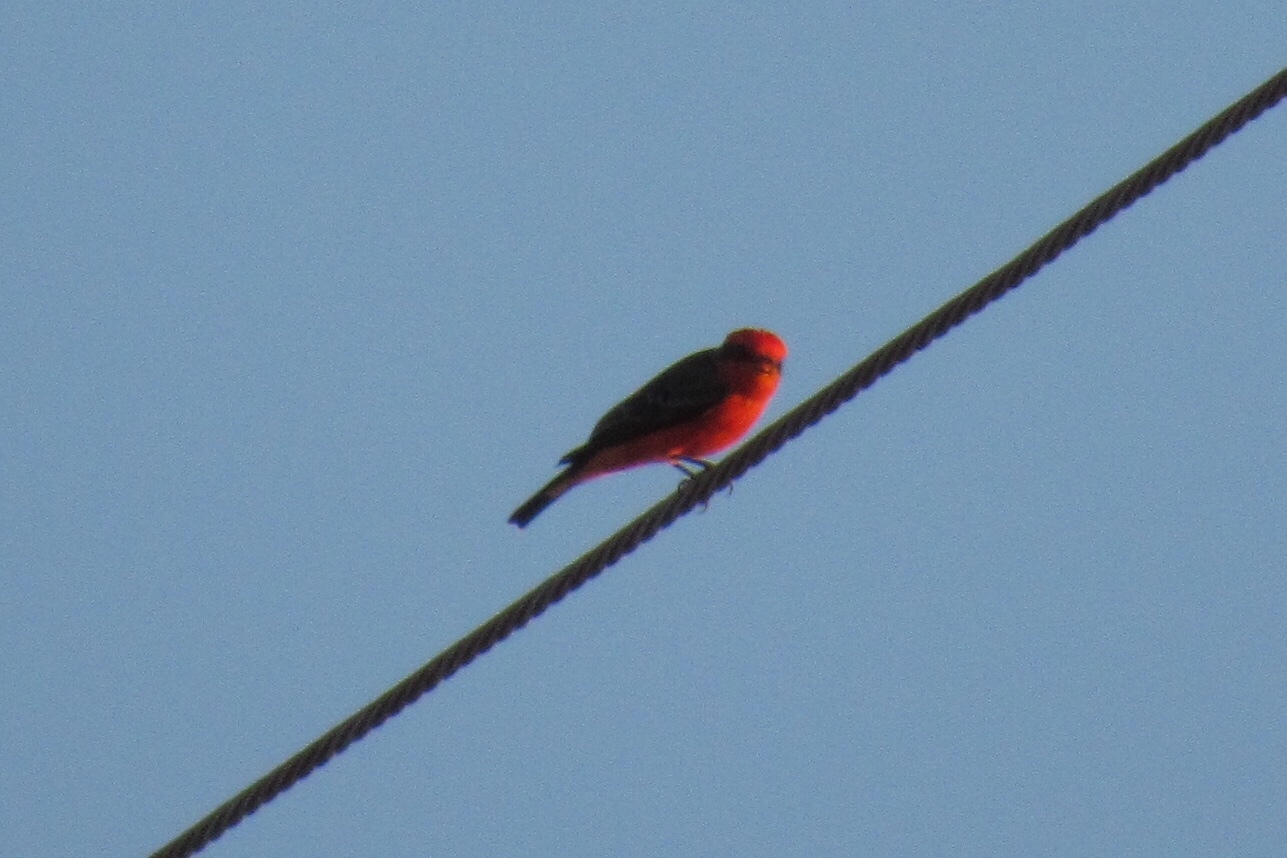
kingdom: Animalia
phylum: Chordata
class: Aves
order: Passeriformes
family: Tyrannidae
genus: Pyrocephalus
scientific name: Pyrocephalus rubinus
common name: Vermilion flycatcher
